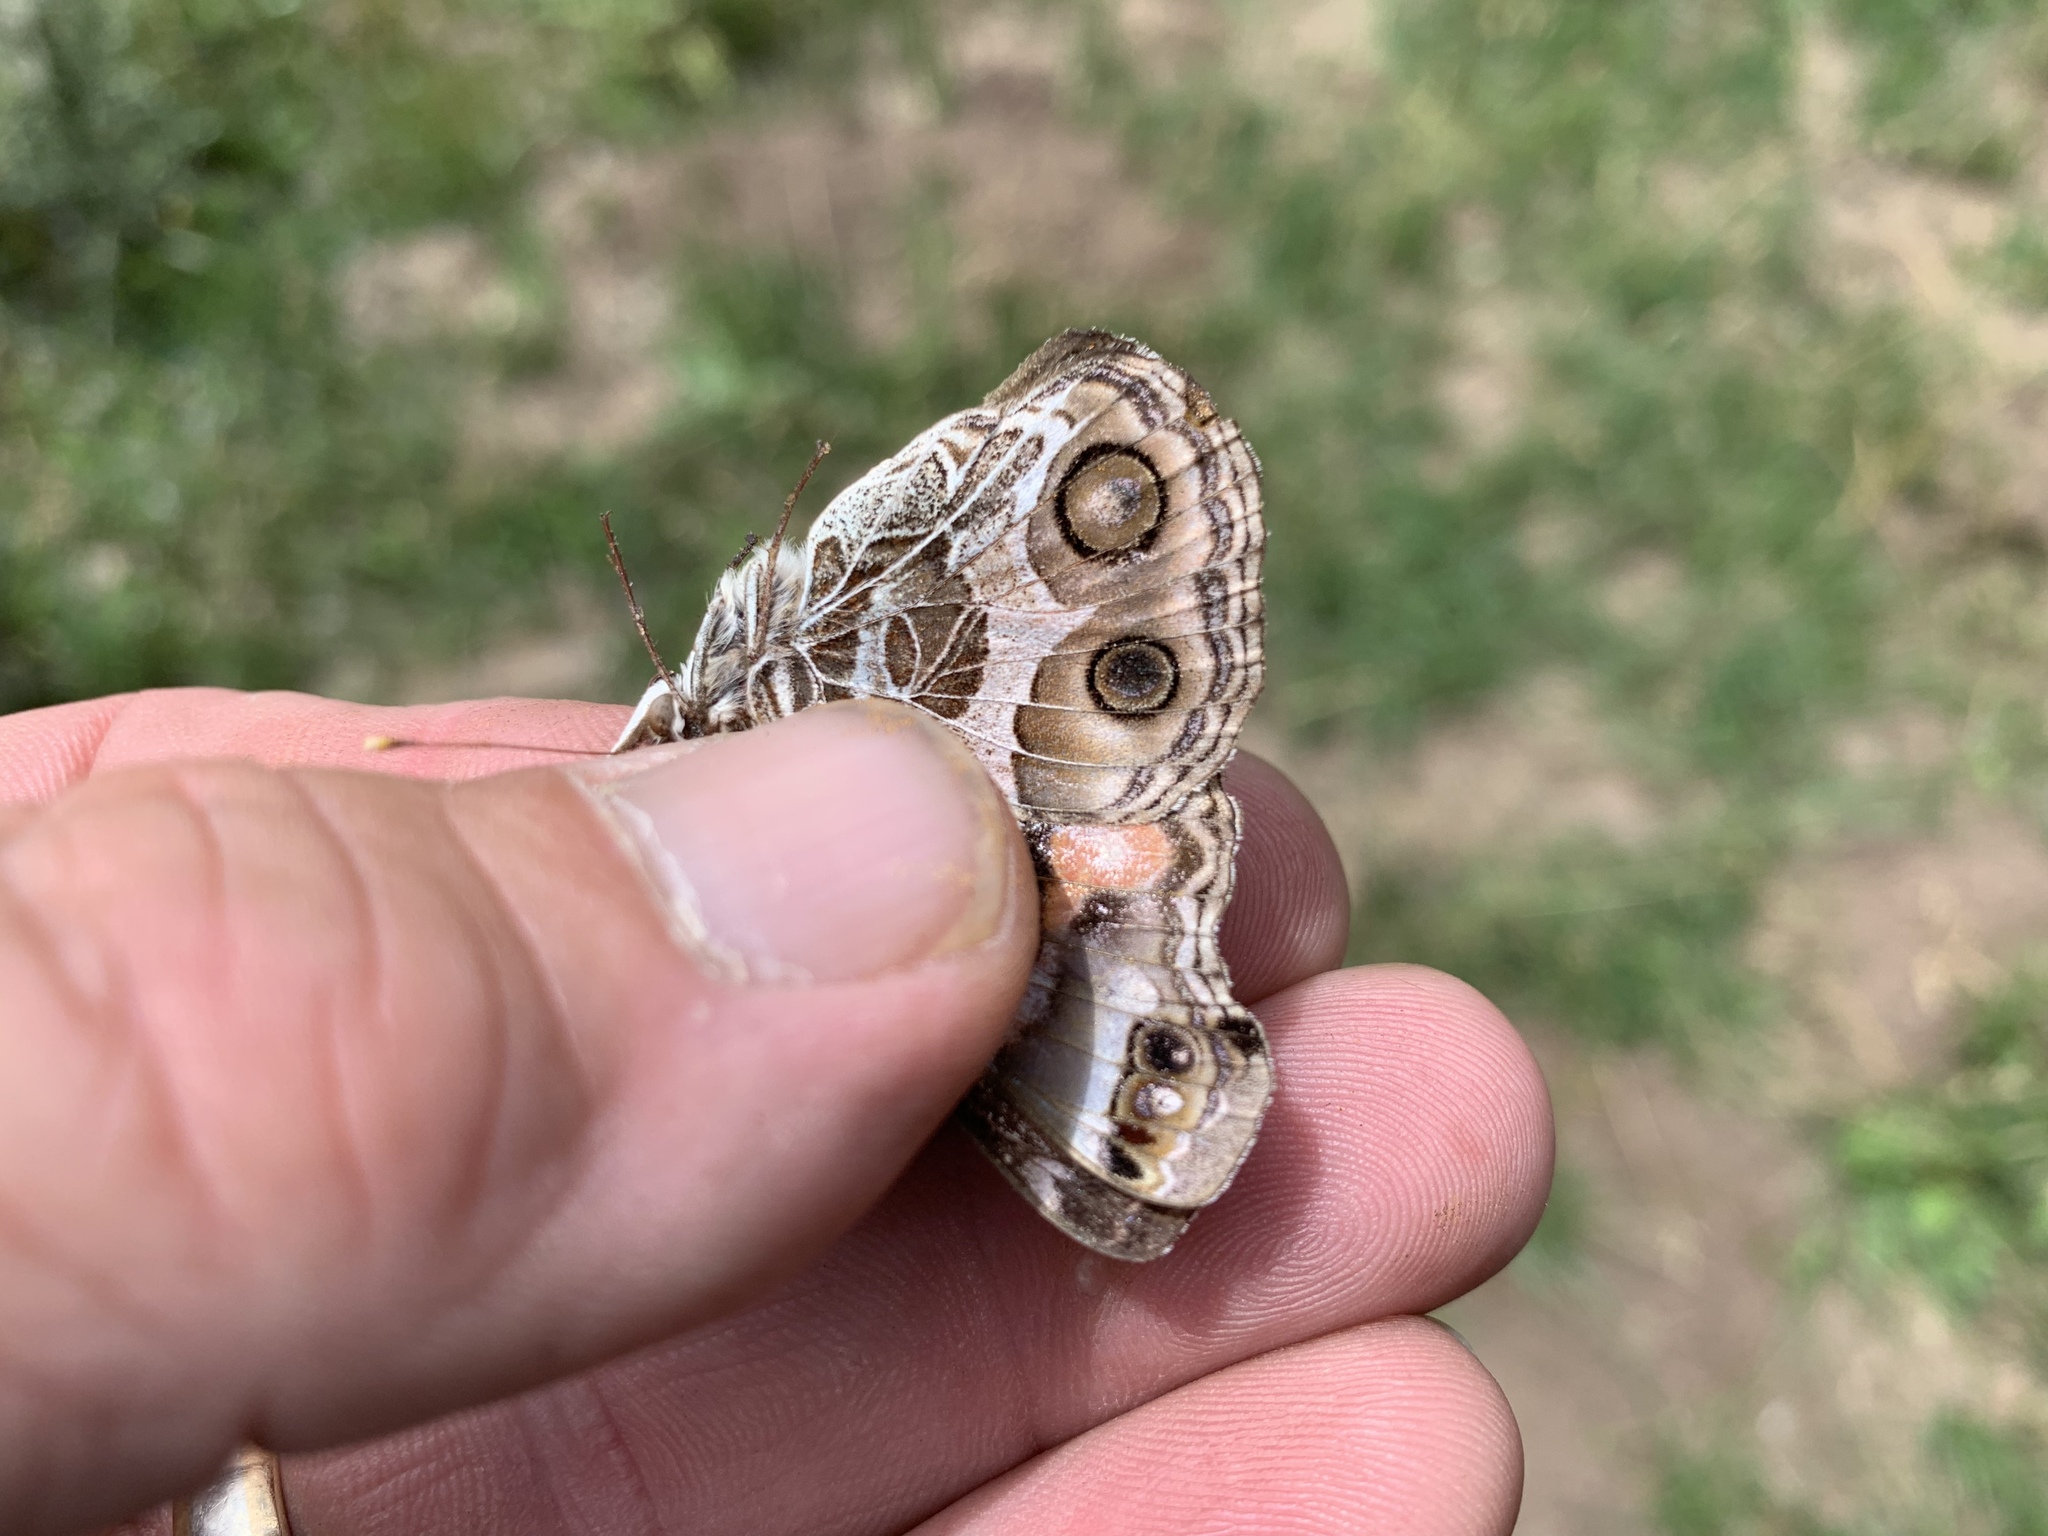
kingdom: Animalia
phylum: Arthropoda
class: Insecta
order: Lepidoptera
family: Nymphalidae
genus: Vanessa
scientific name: Vanessa virginiensis
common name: American lady
